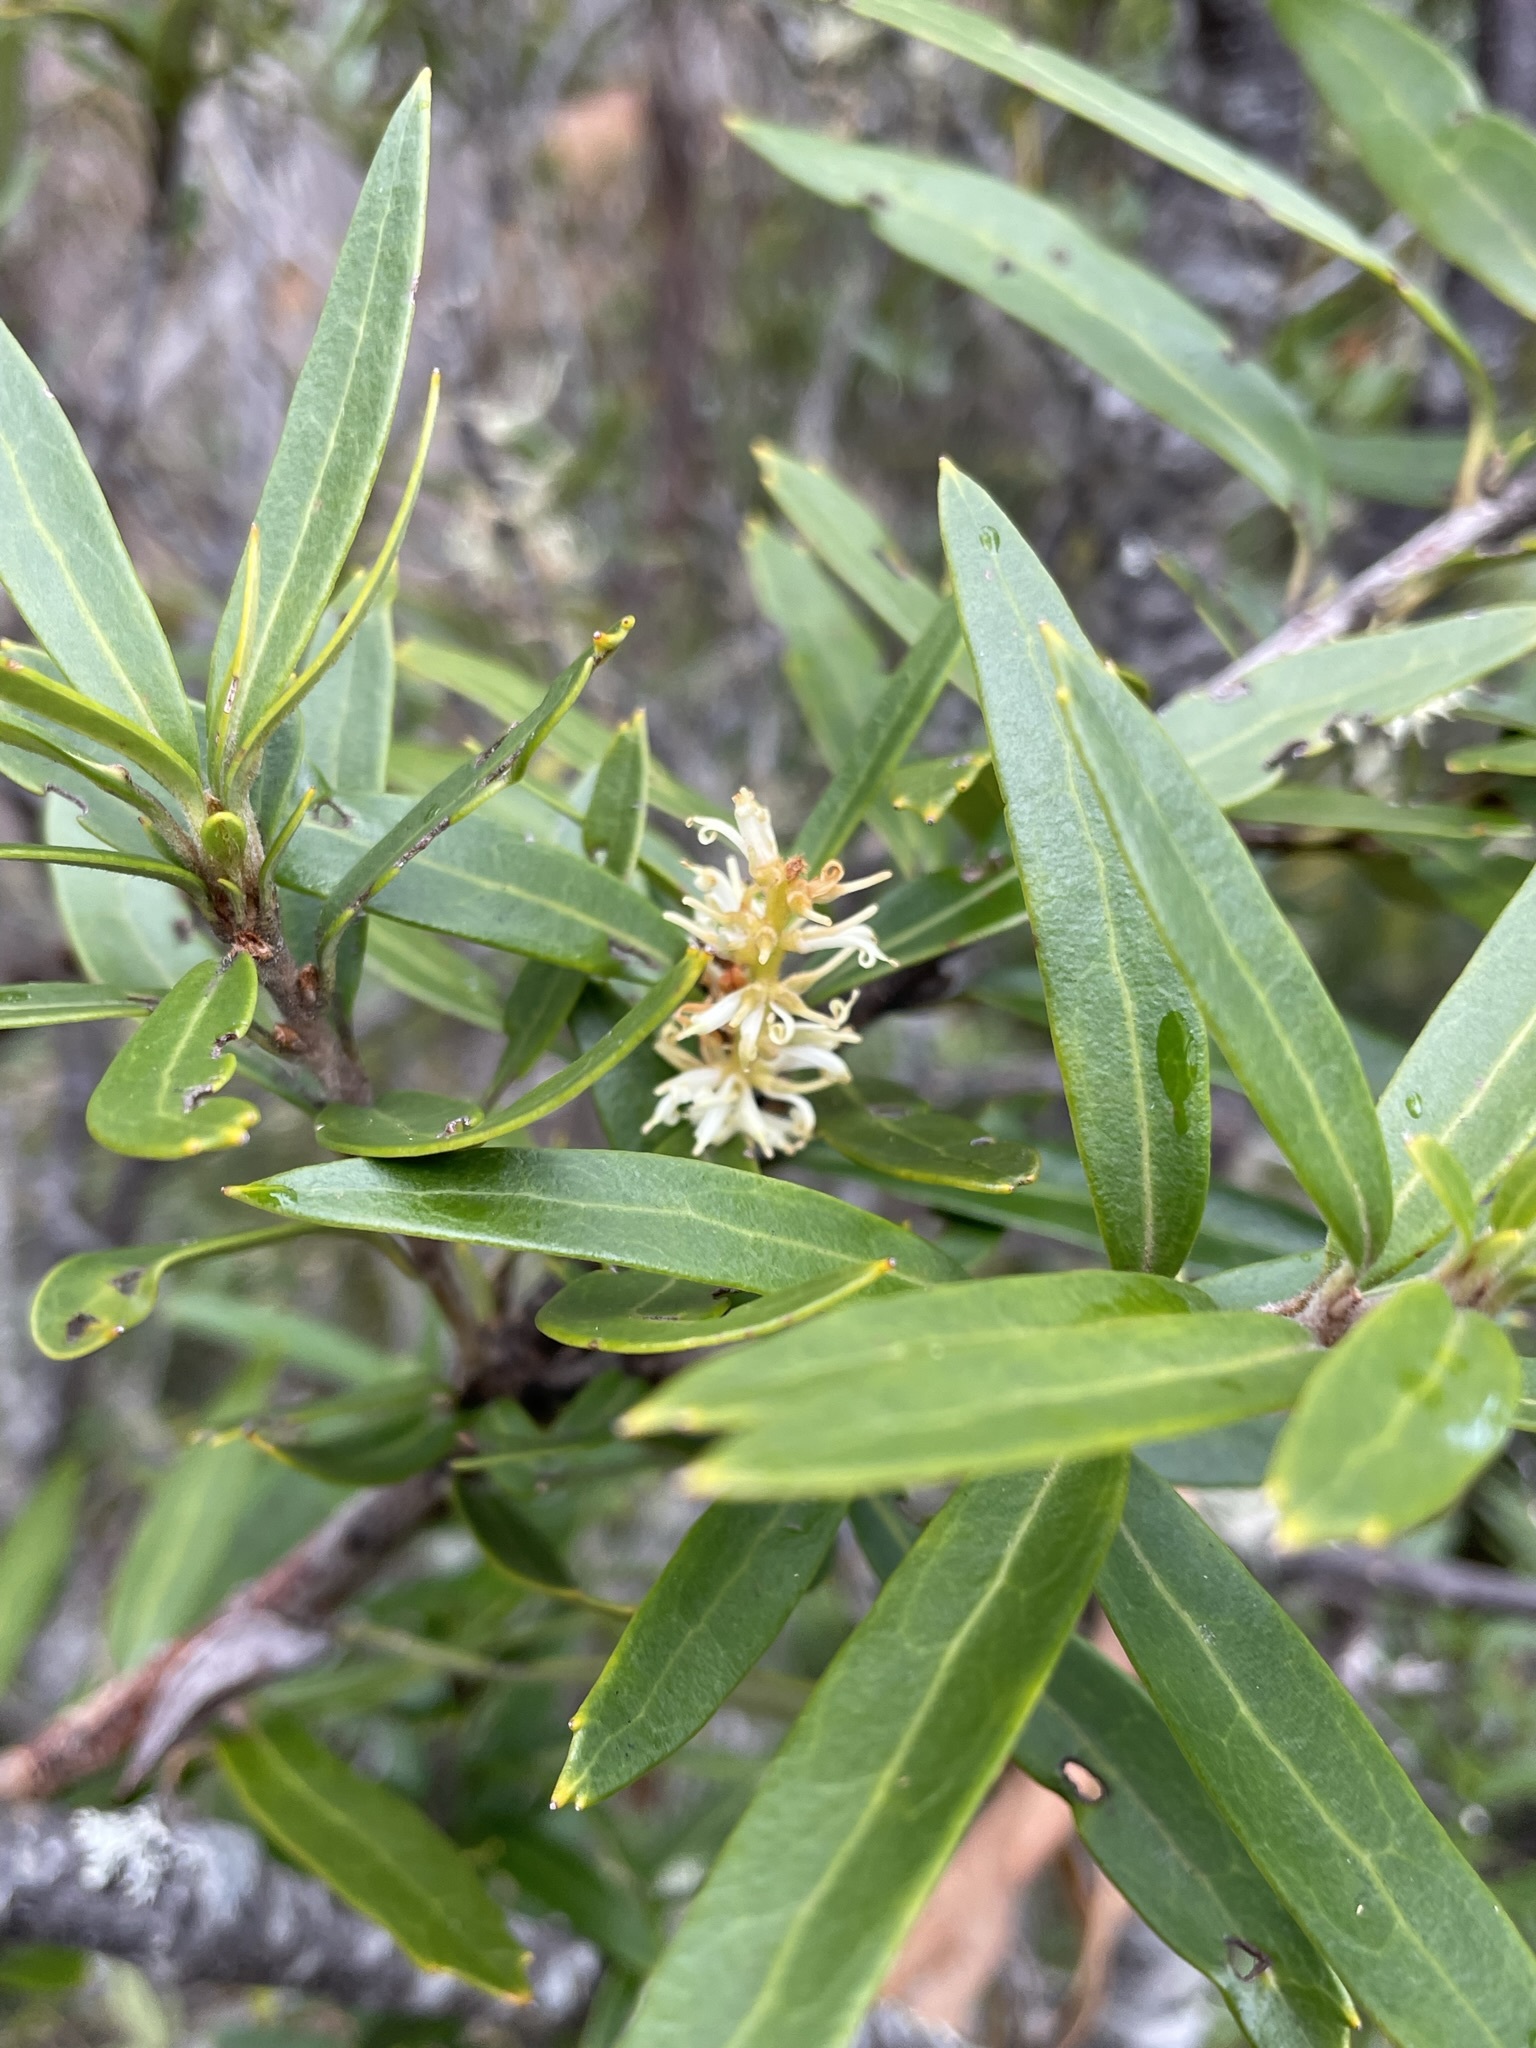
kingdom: Plantae
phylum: Tracheophyta
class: Magnoliopsida
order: Proteales
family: Proteaceae
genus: Orites
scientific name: Orites diversifolius
